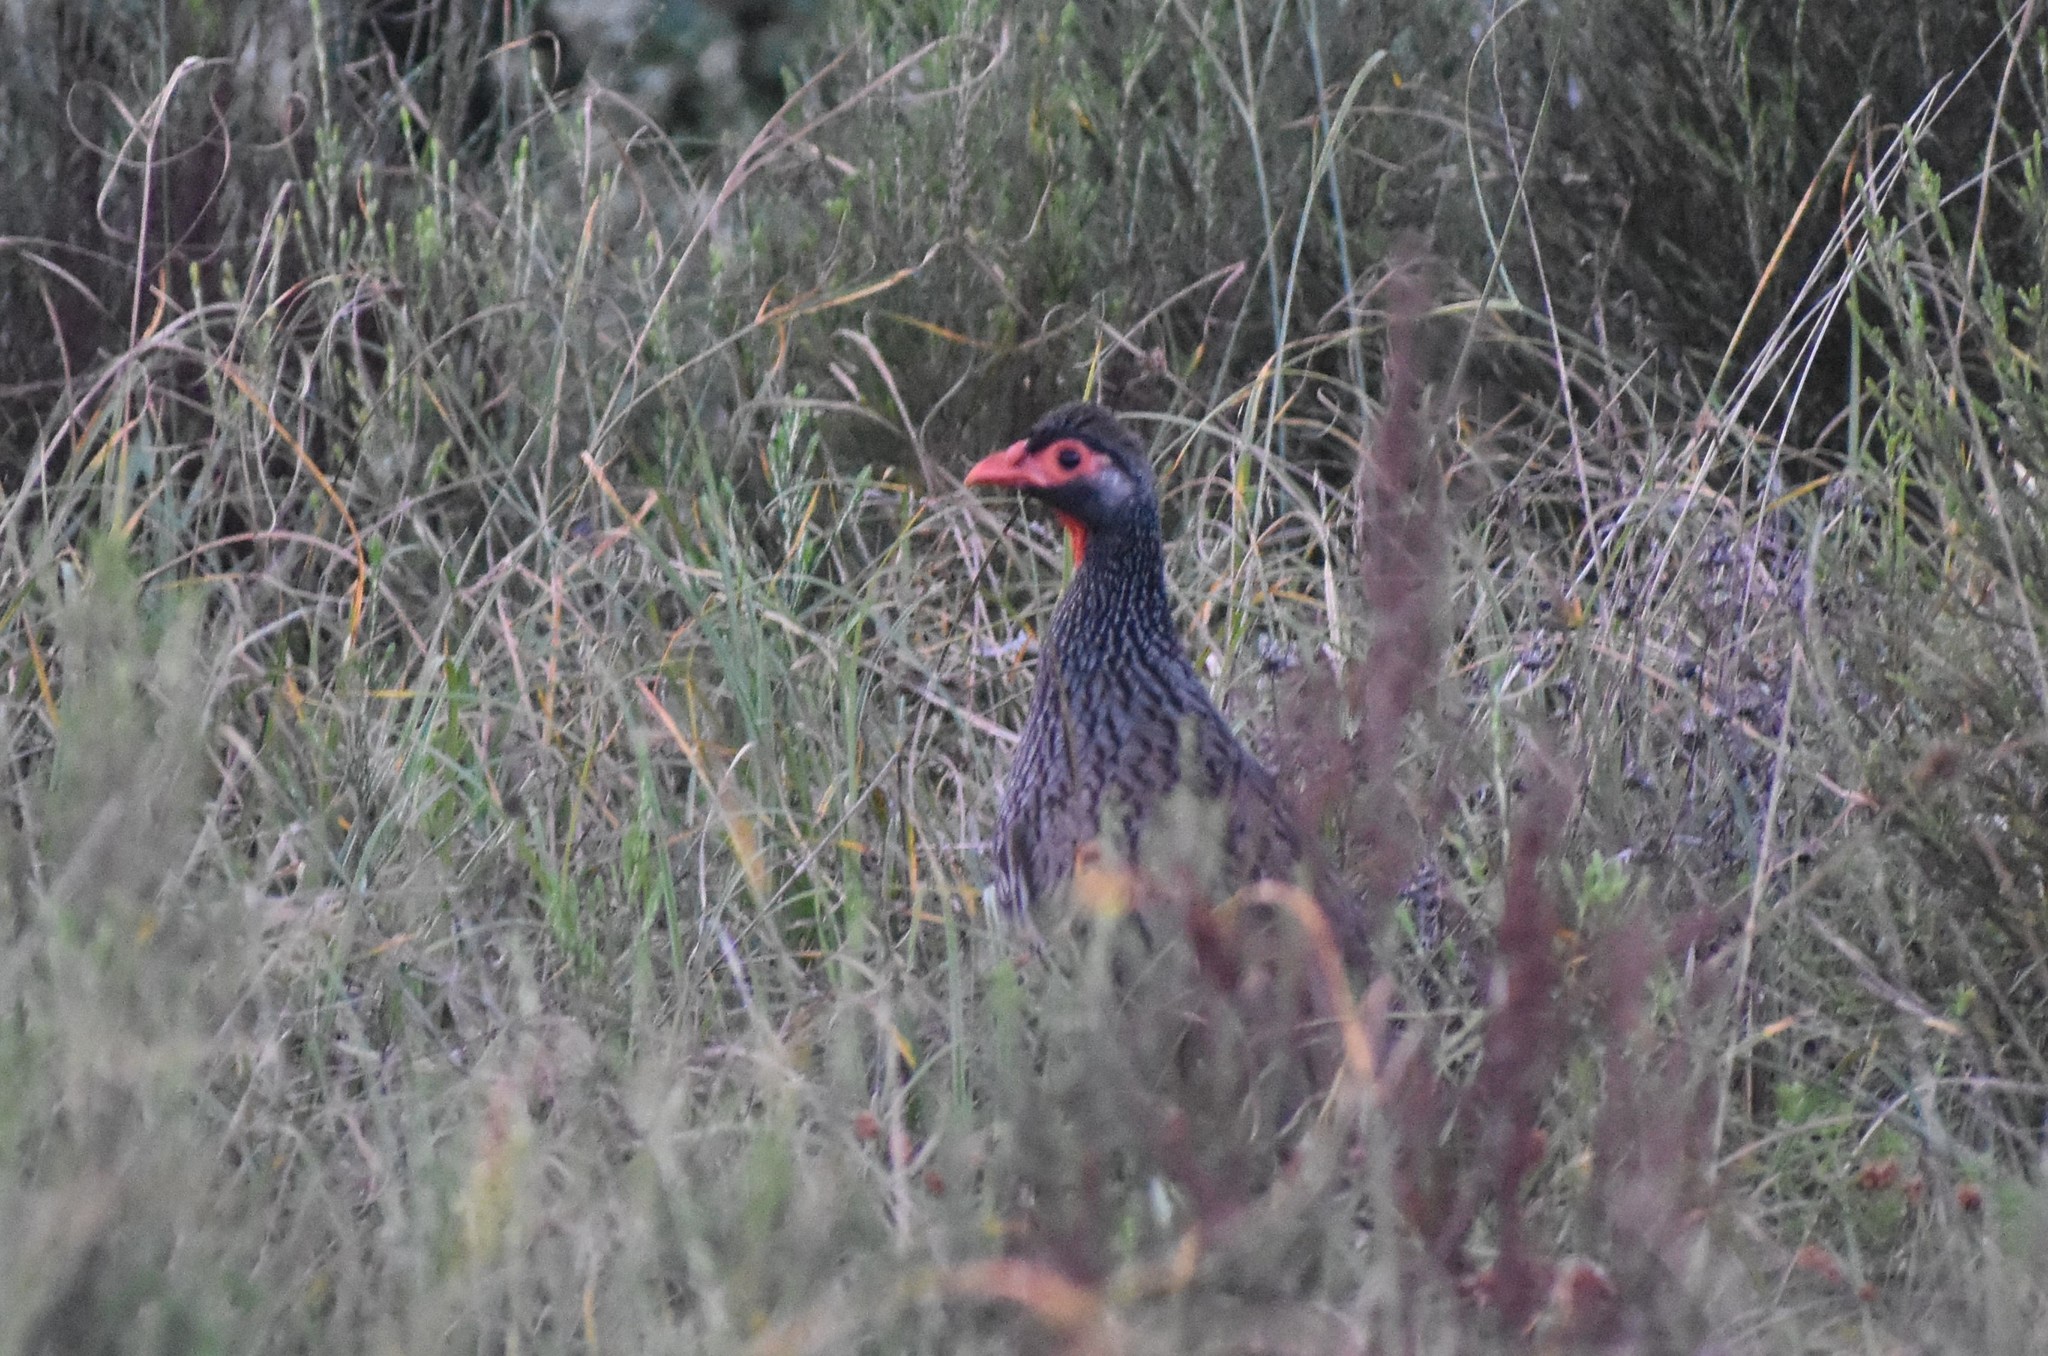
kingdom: Animalia
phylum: Chordata
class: Aves
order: Galliformes
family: Phasianidae
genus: Pternistis
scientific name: Pternistis afer
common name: Red-necked spurfowl
